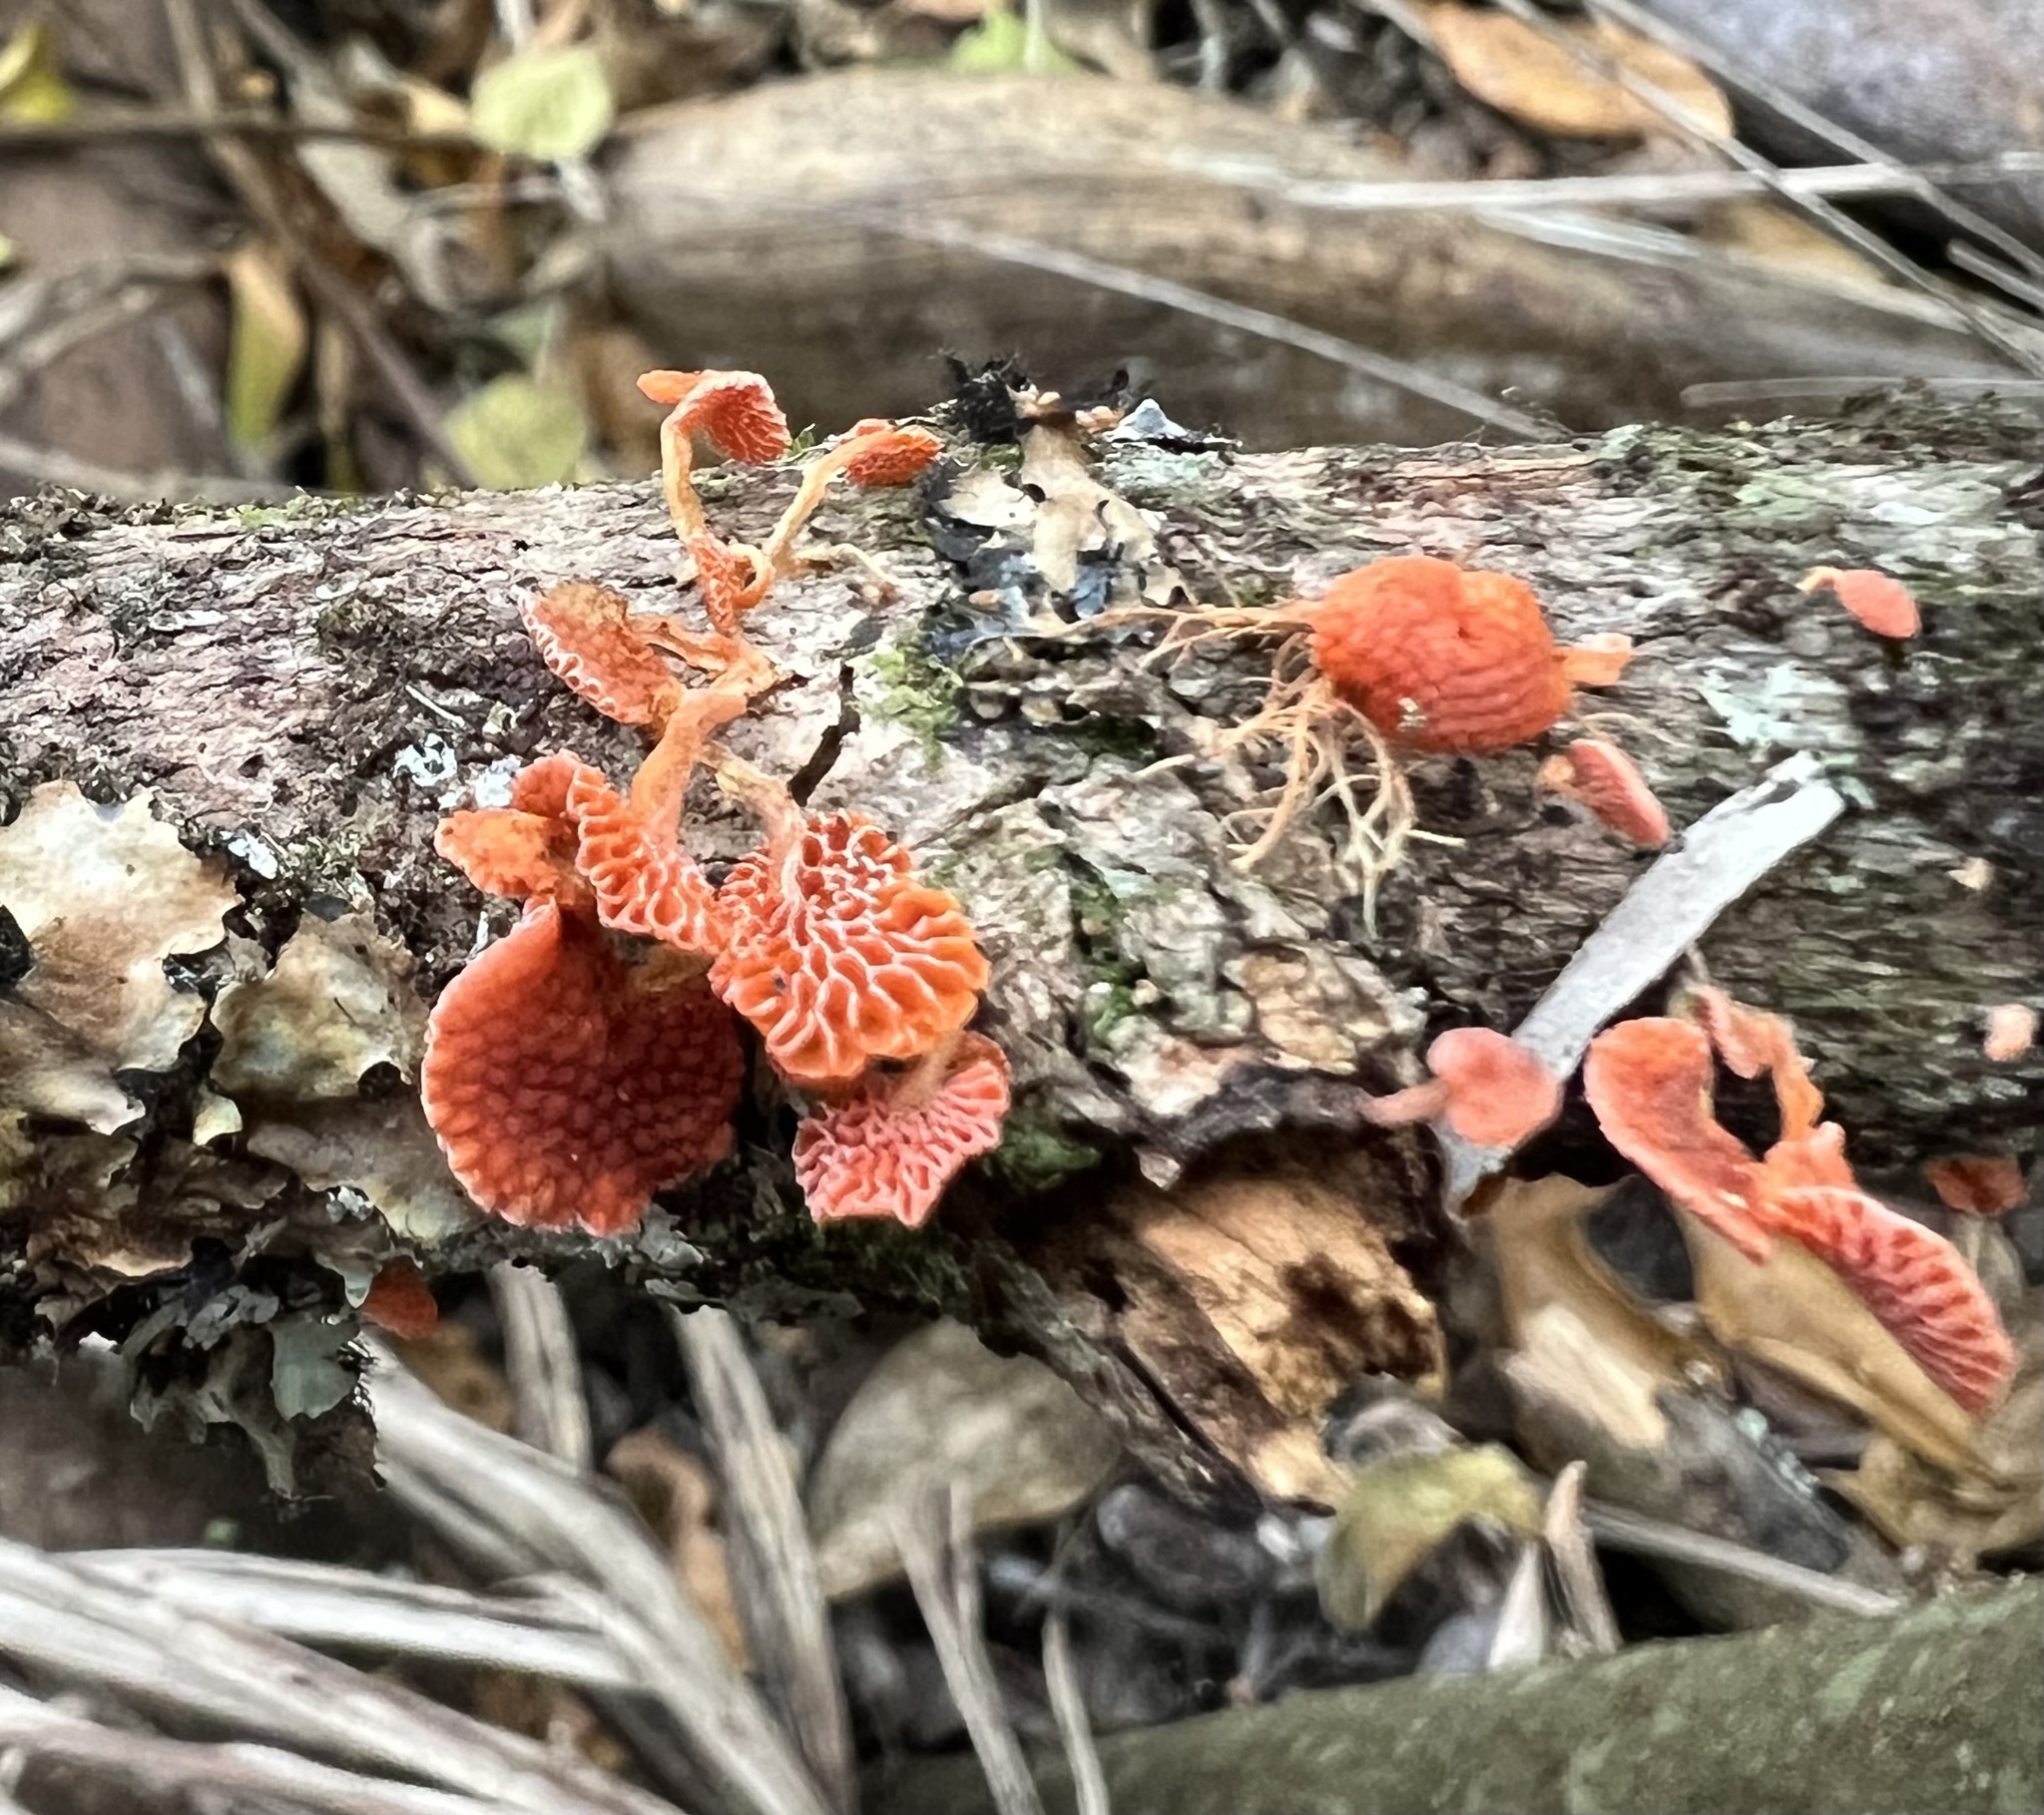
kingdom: Fungi
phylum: Basidiomycota
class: Agaricomycetes
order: Agaricales
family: Mycenaceae
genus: Favolaschia
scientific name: Favolaschia claudopus
